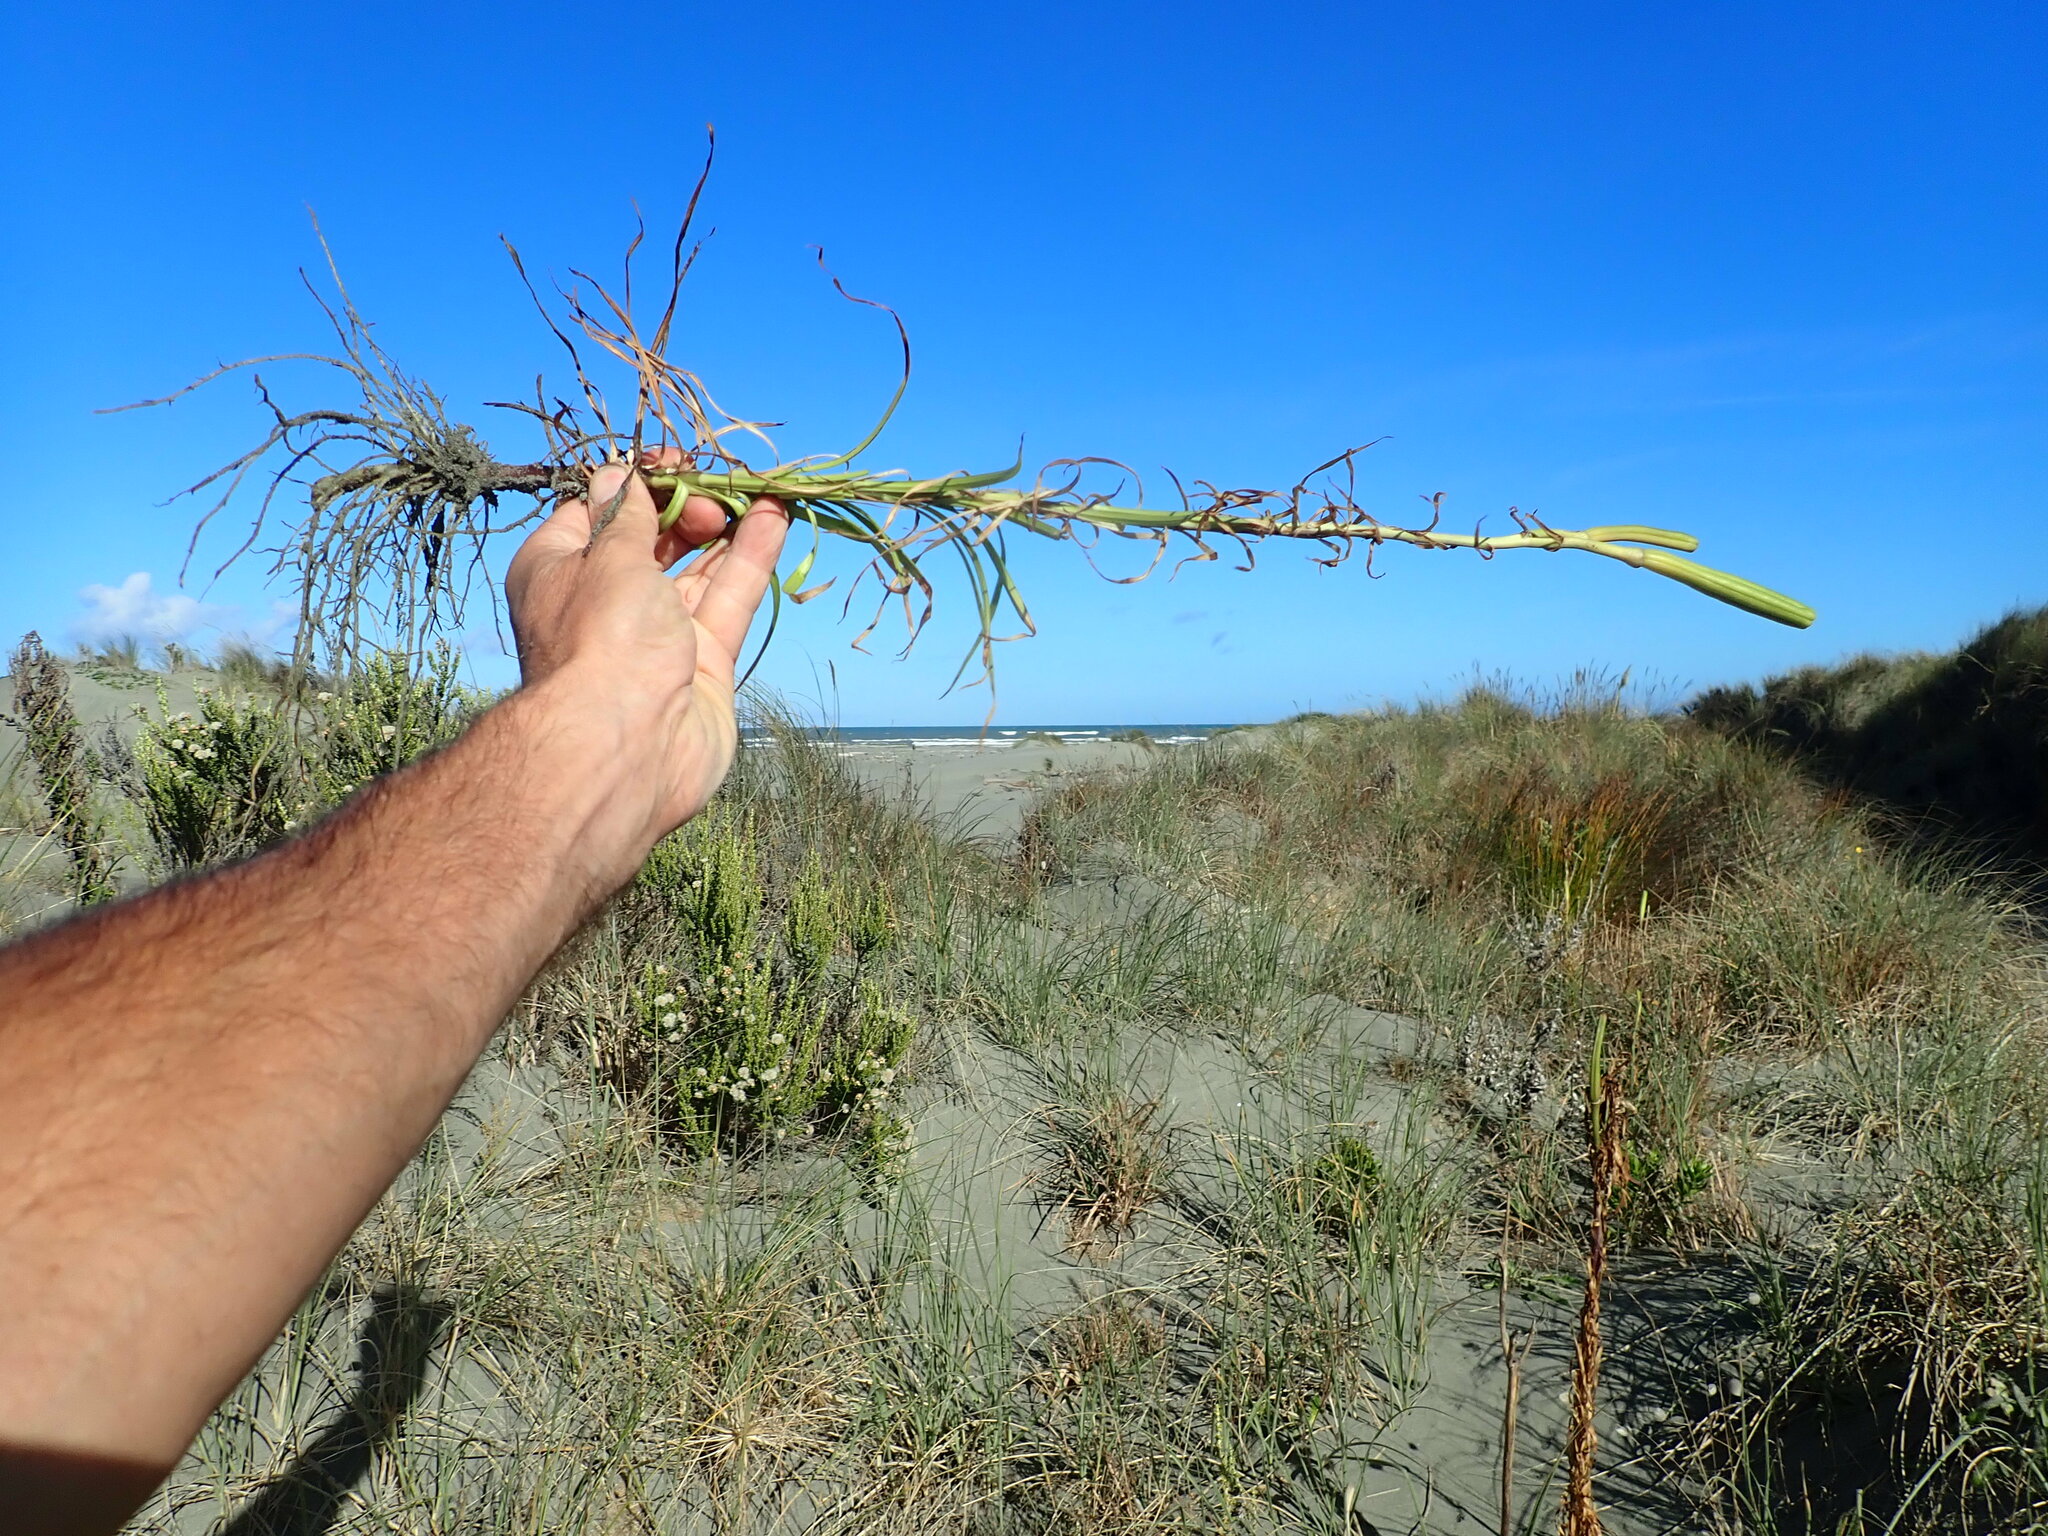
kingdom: Plantae
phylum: Tracheophyta
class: Liliopsida
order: Liliales
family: Liliaceae
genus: Lilium
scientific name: Lilium formosanum
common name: Formosa lily
